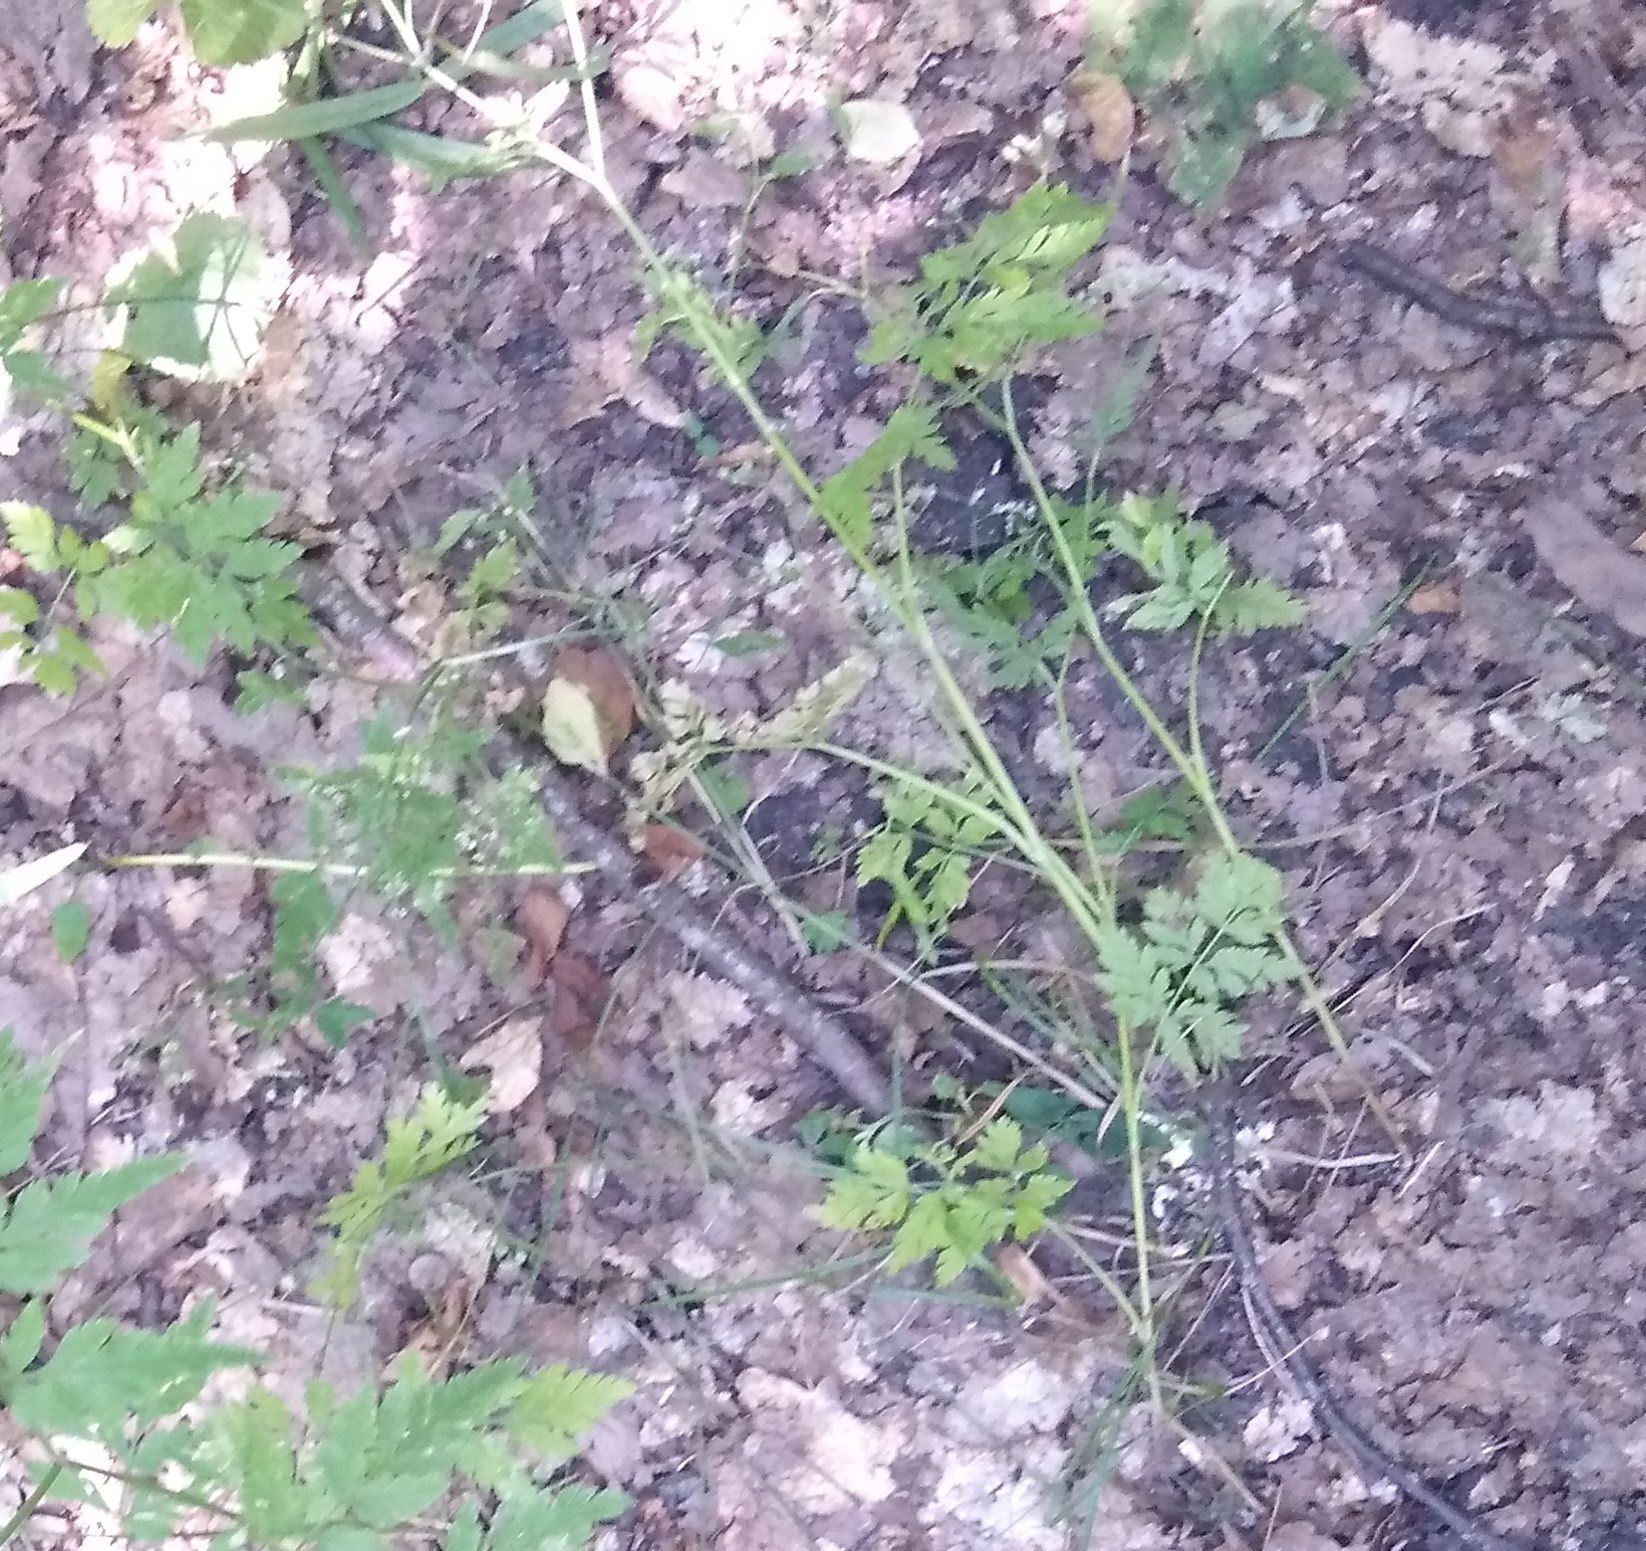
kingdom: Plantae
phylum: Tracheophyta
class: Magnoliopsida
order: Apiales
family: Apiaceae
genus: Anthriscus
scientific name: Anthriscus sylvestris
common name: Cow parsley
